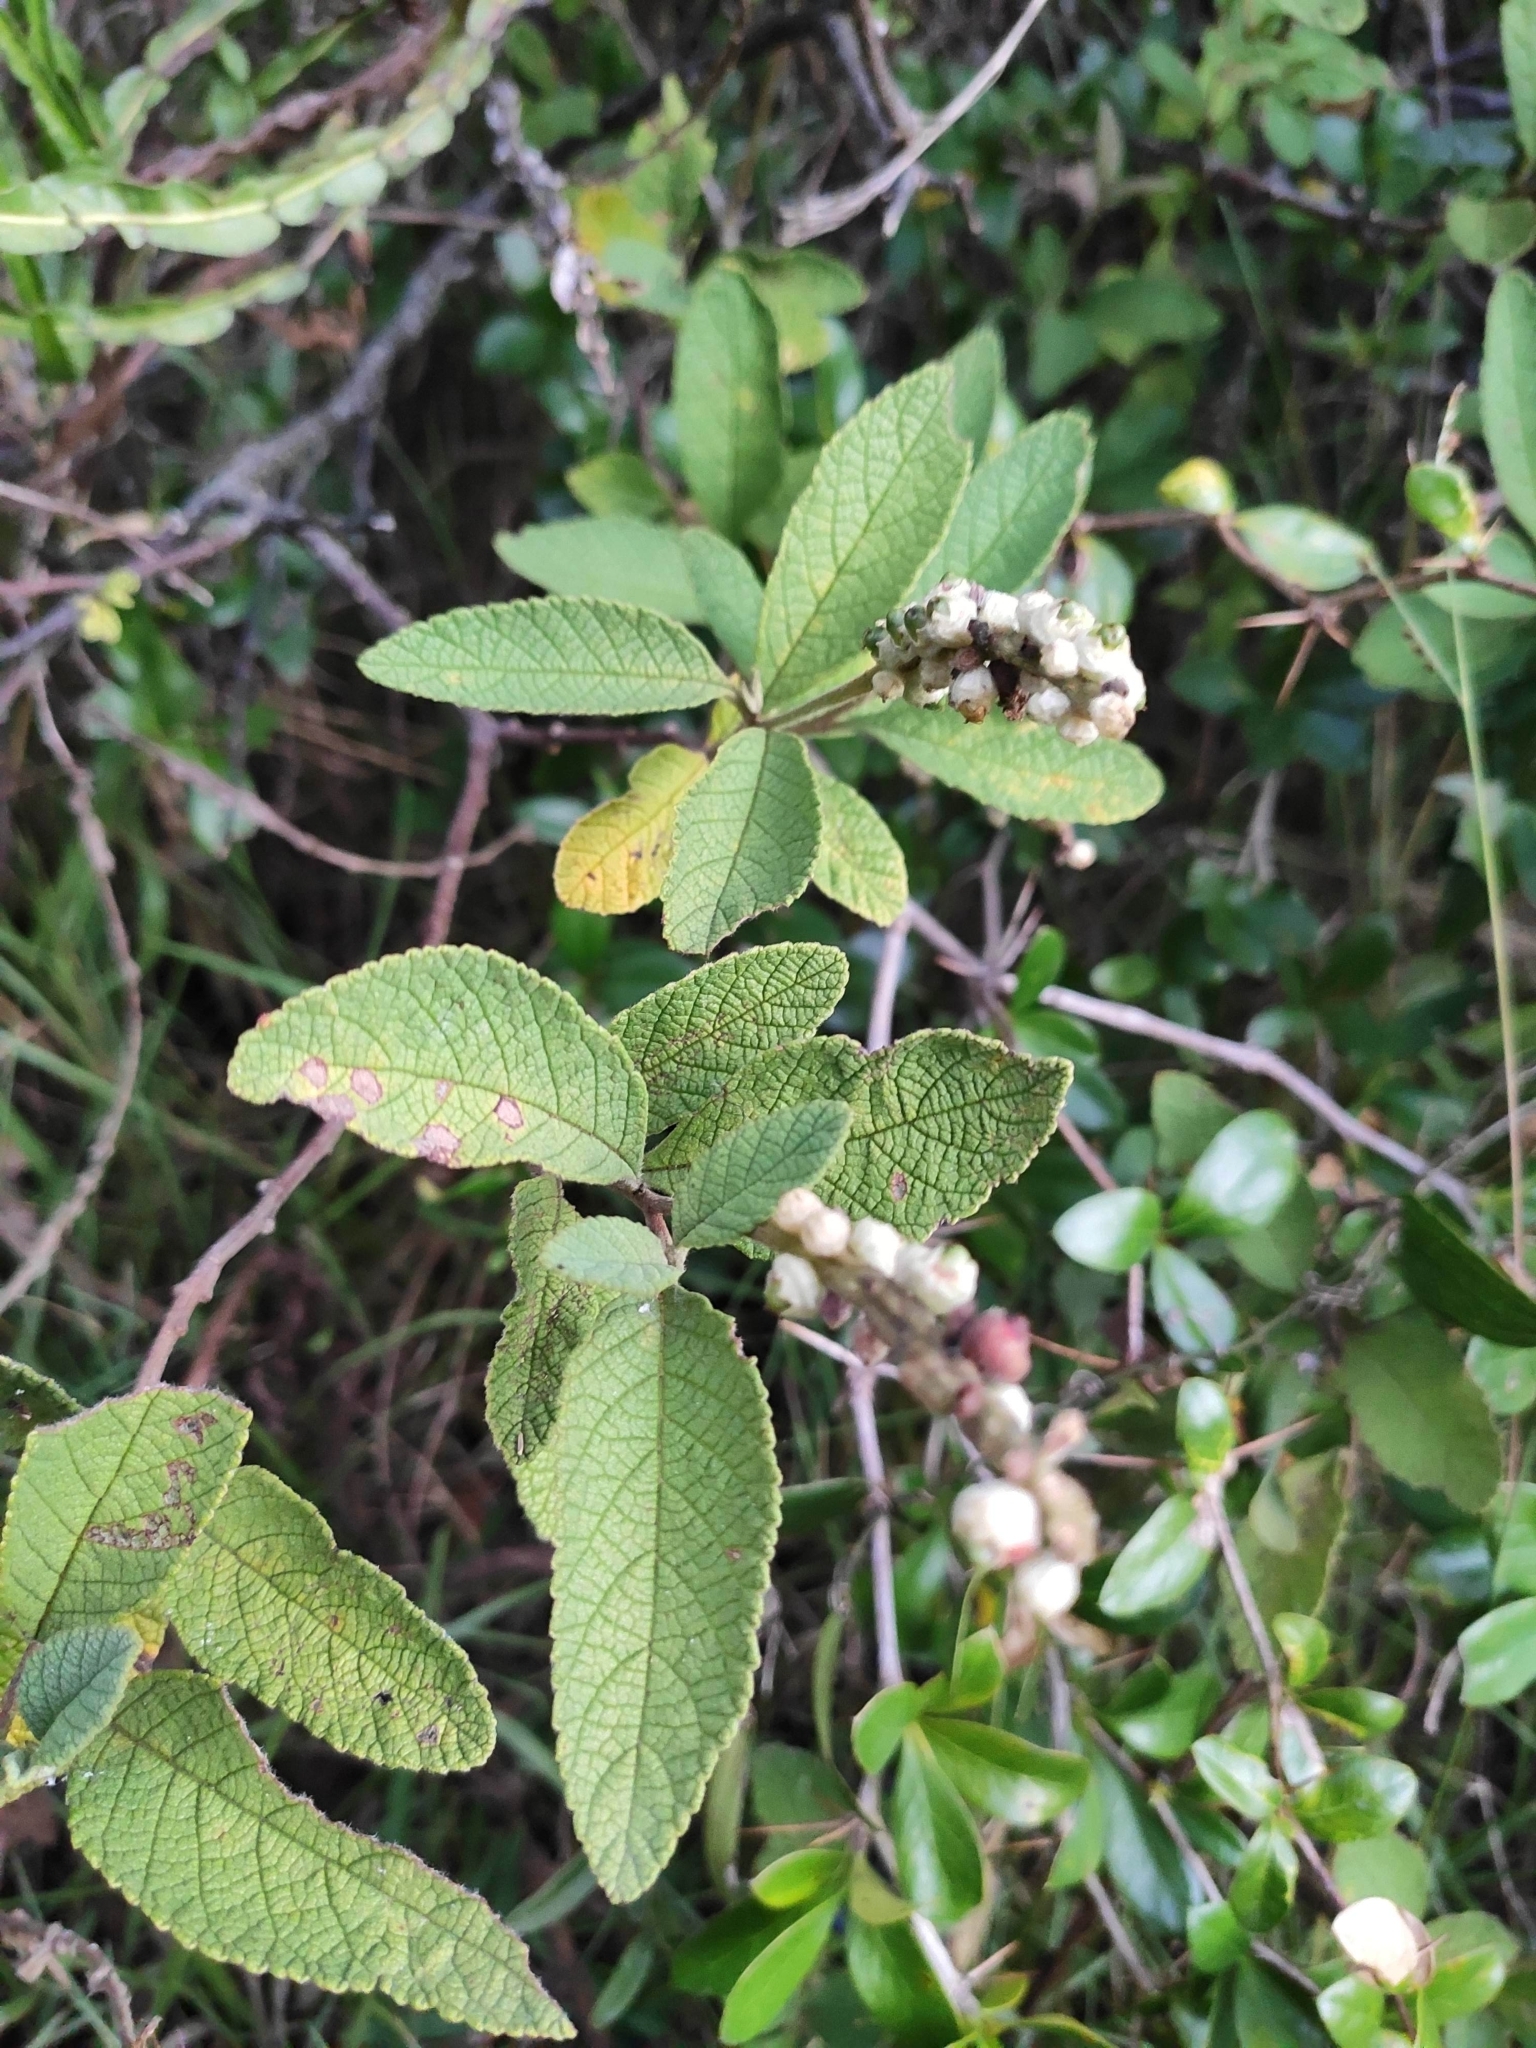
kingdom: Plantae
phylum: Tracheophyta
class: Magnoliopsida
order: Boraginales
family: Cordiaceae
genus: Varronia
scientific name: Varronia curassavica
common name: Black sage
